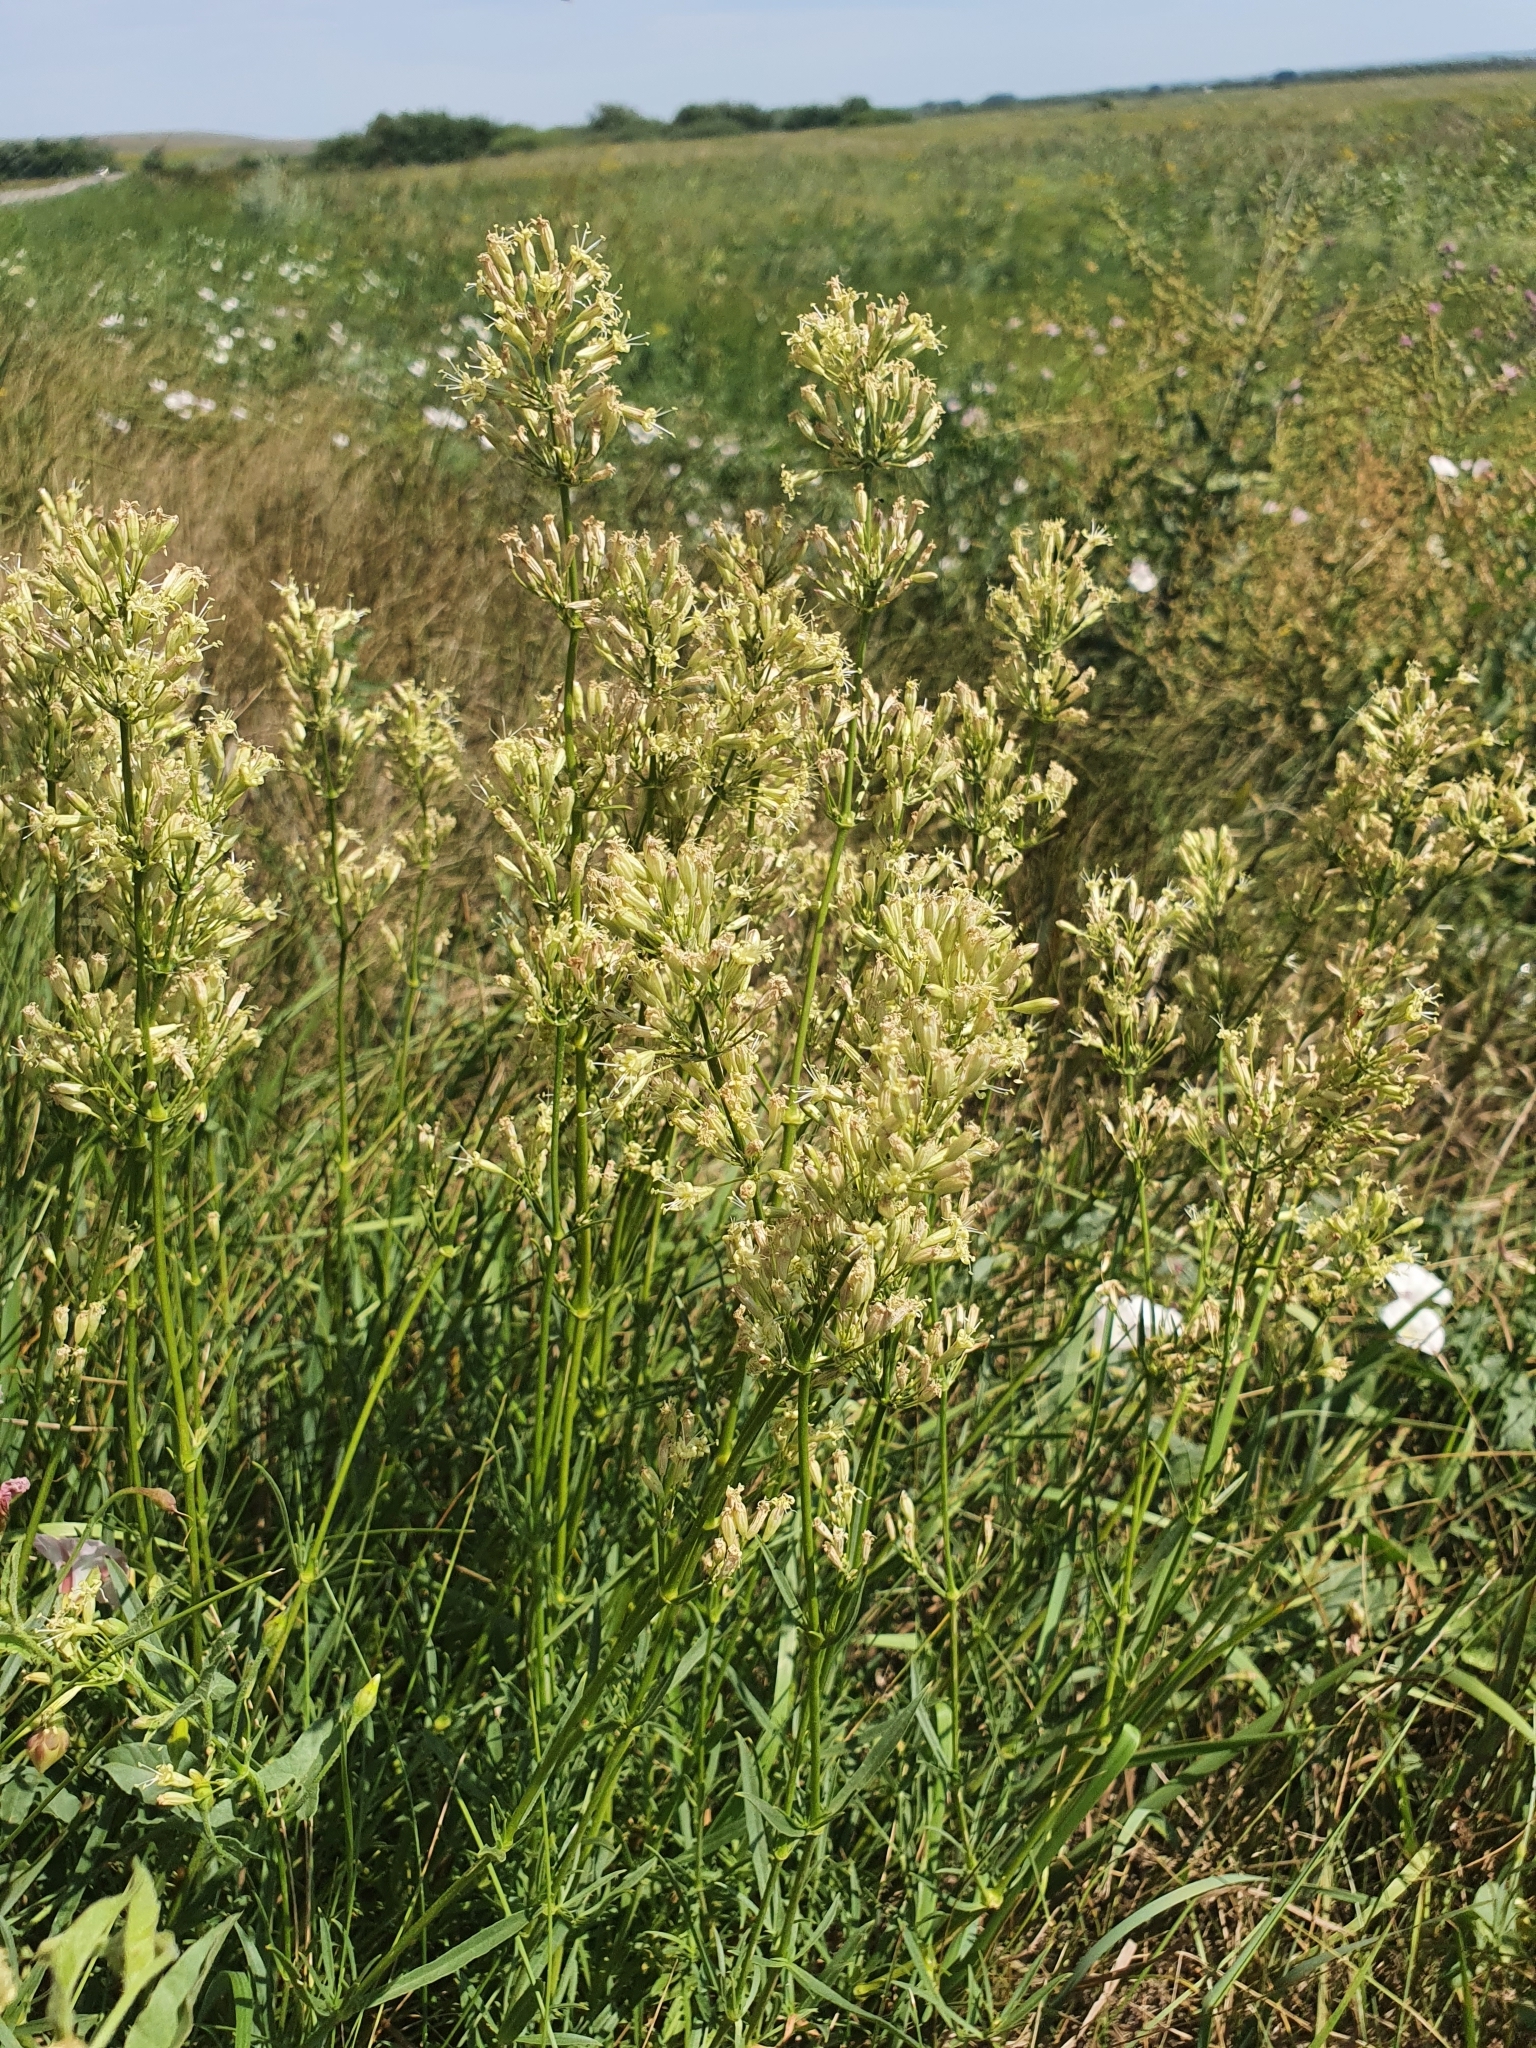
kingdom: Plantae
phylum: Tracheophyta
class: Magnoliopsida
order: Caryophyllales
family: Caryophyllaceae
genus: Silene
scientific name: Silene tatarica
